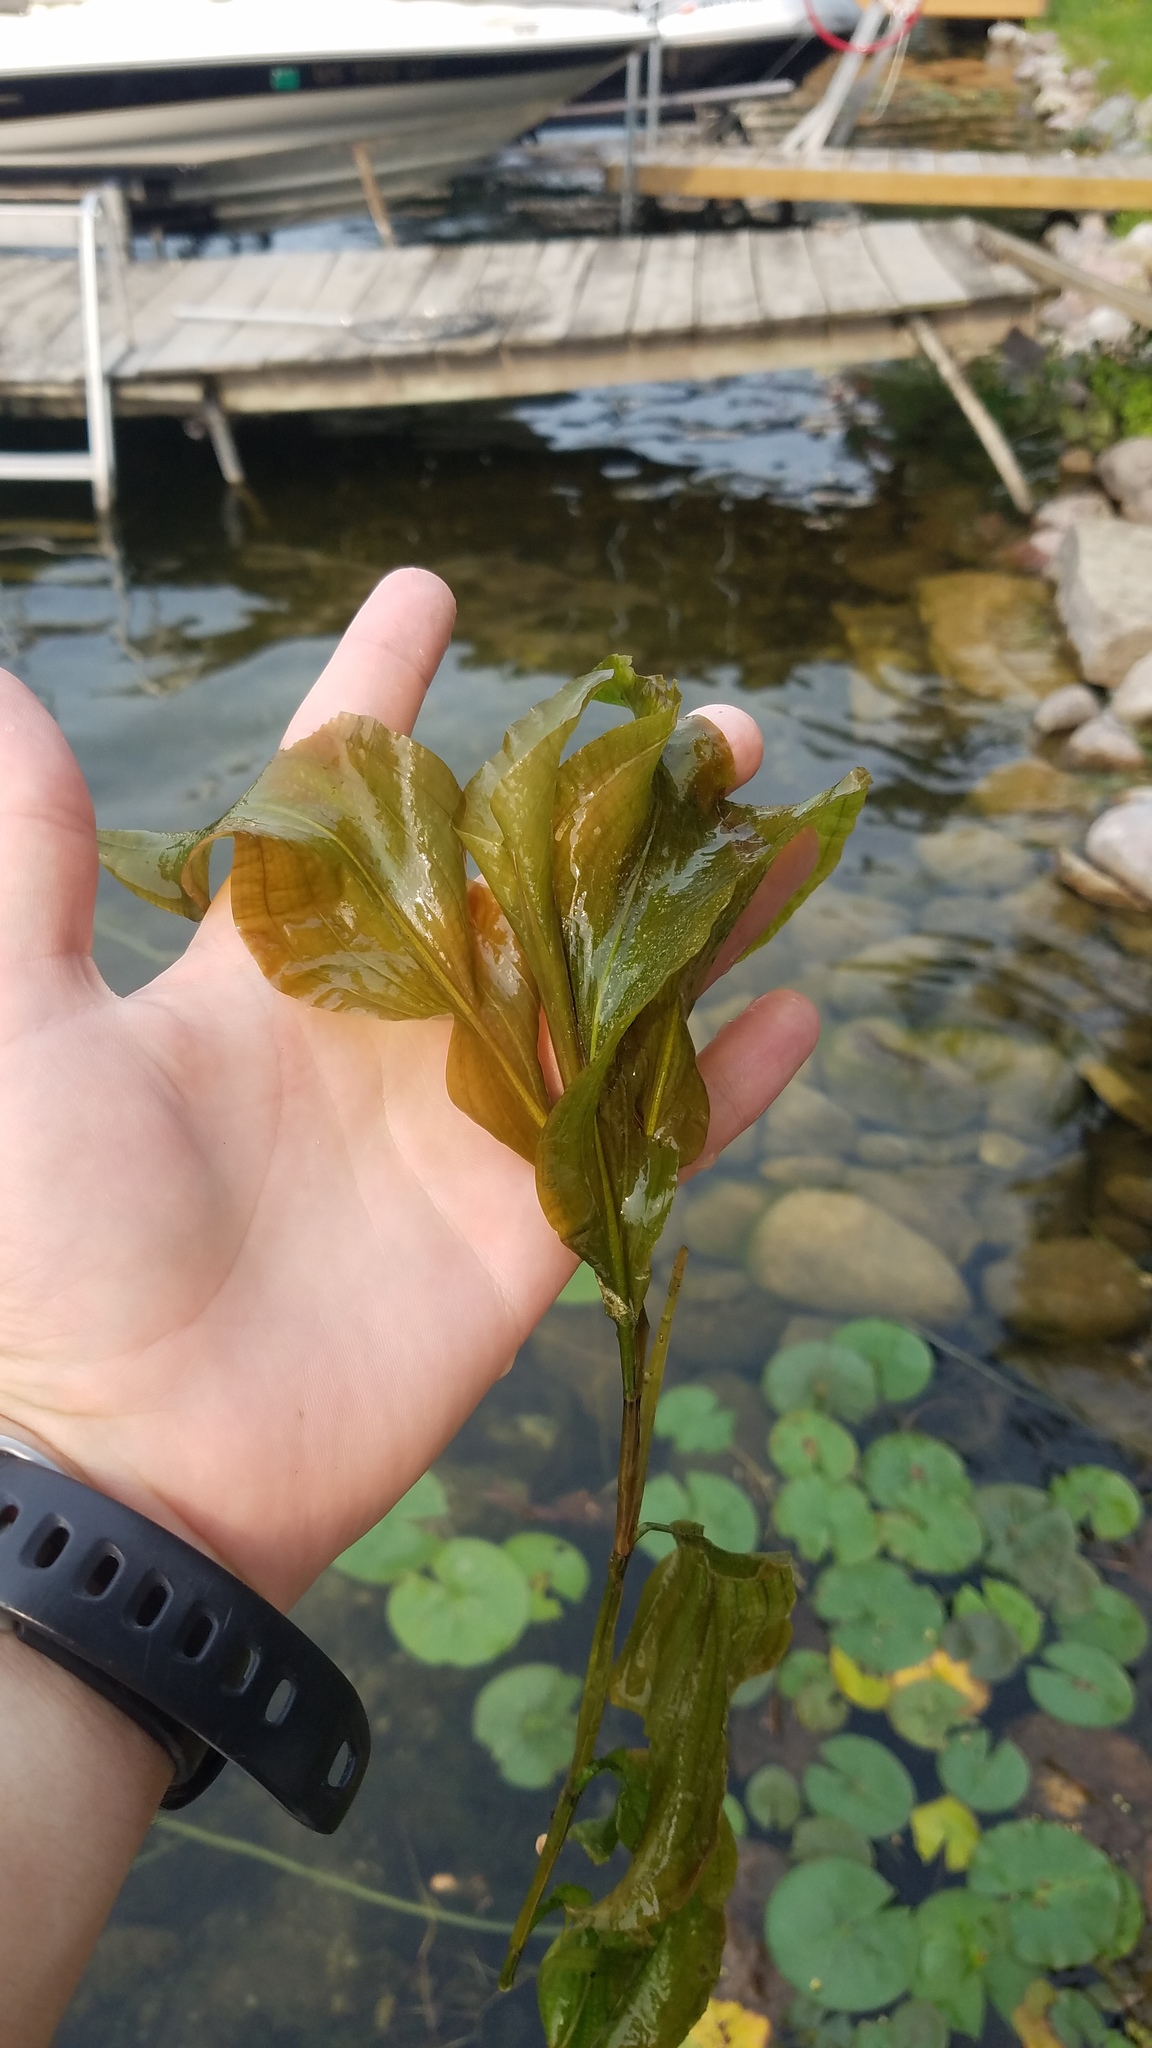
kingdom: Plantae
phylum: Tracheophyta
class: Liliopsida
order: Alismatales
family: Potamogetonaceae
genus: Potamogeton
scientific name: Potamogeton amplifolius
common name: Broad-leaved pondweed
